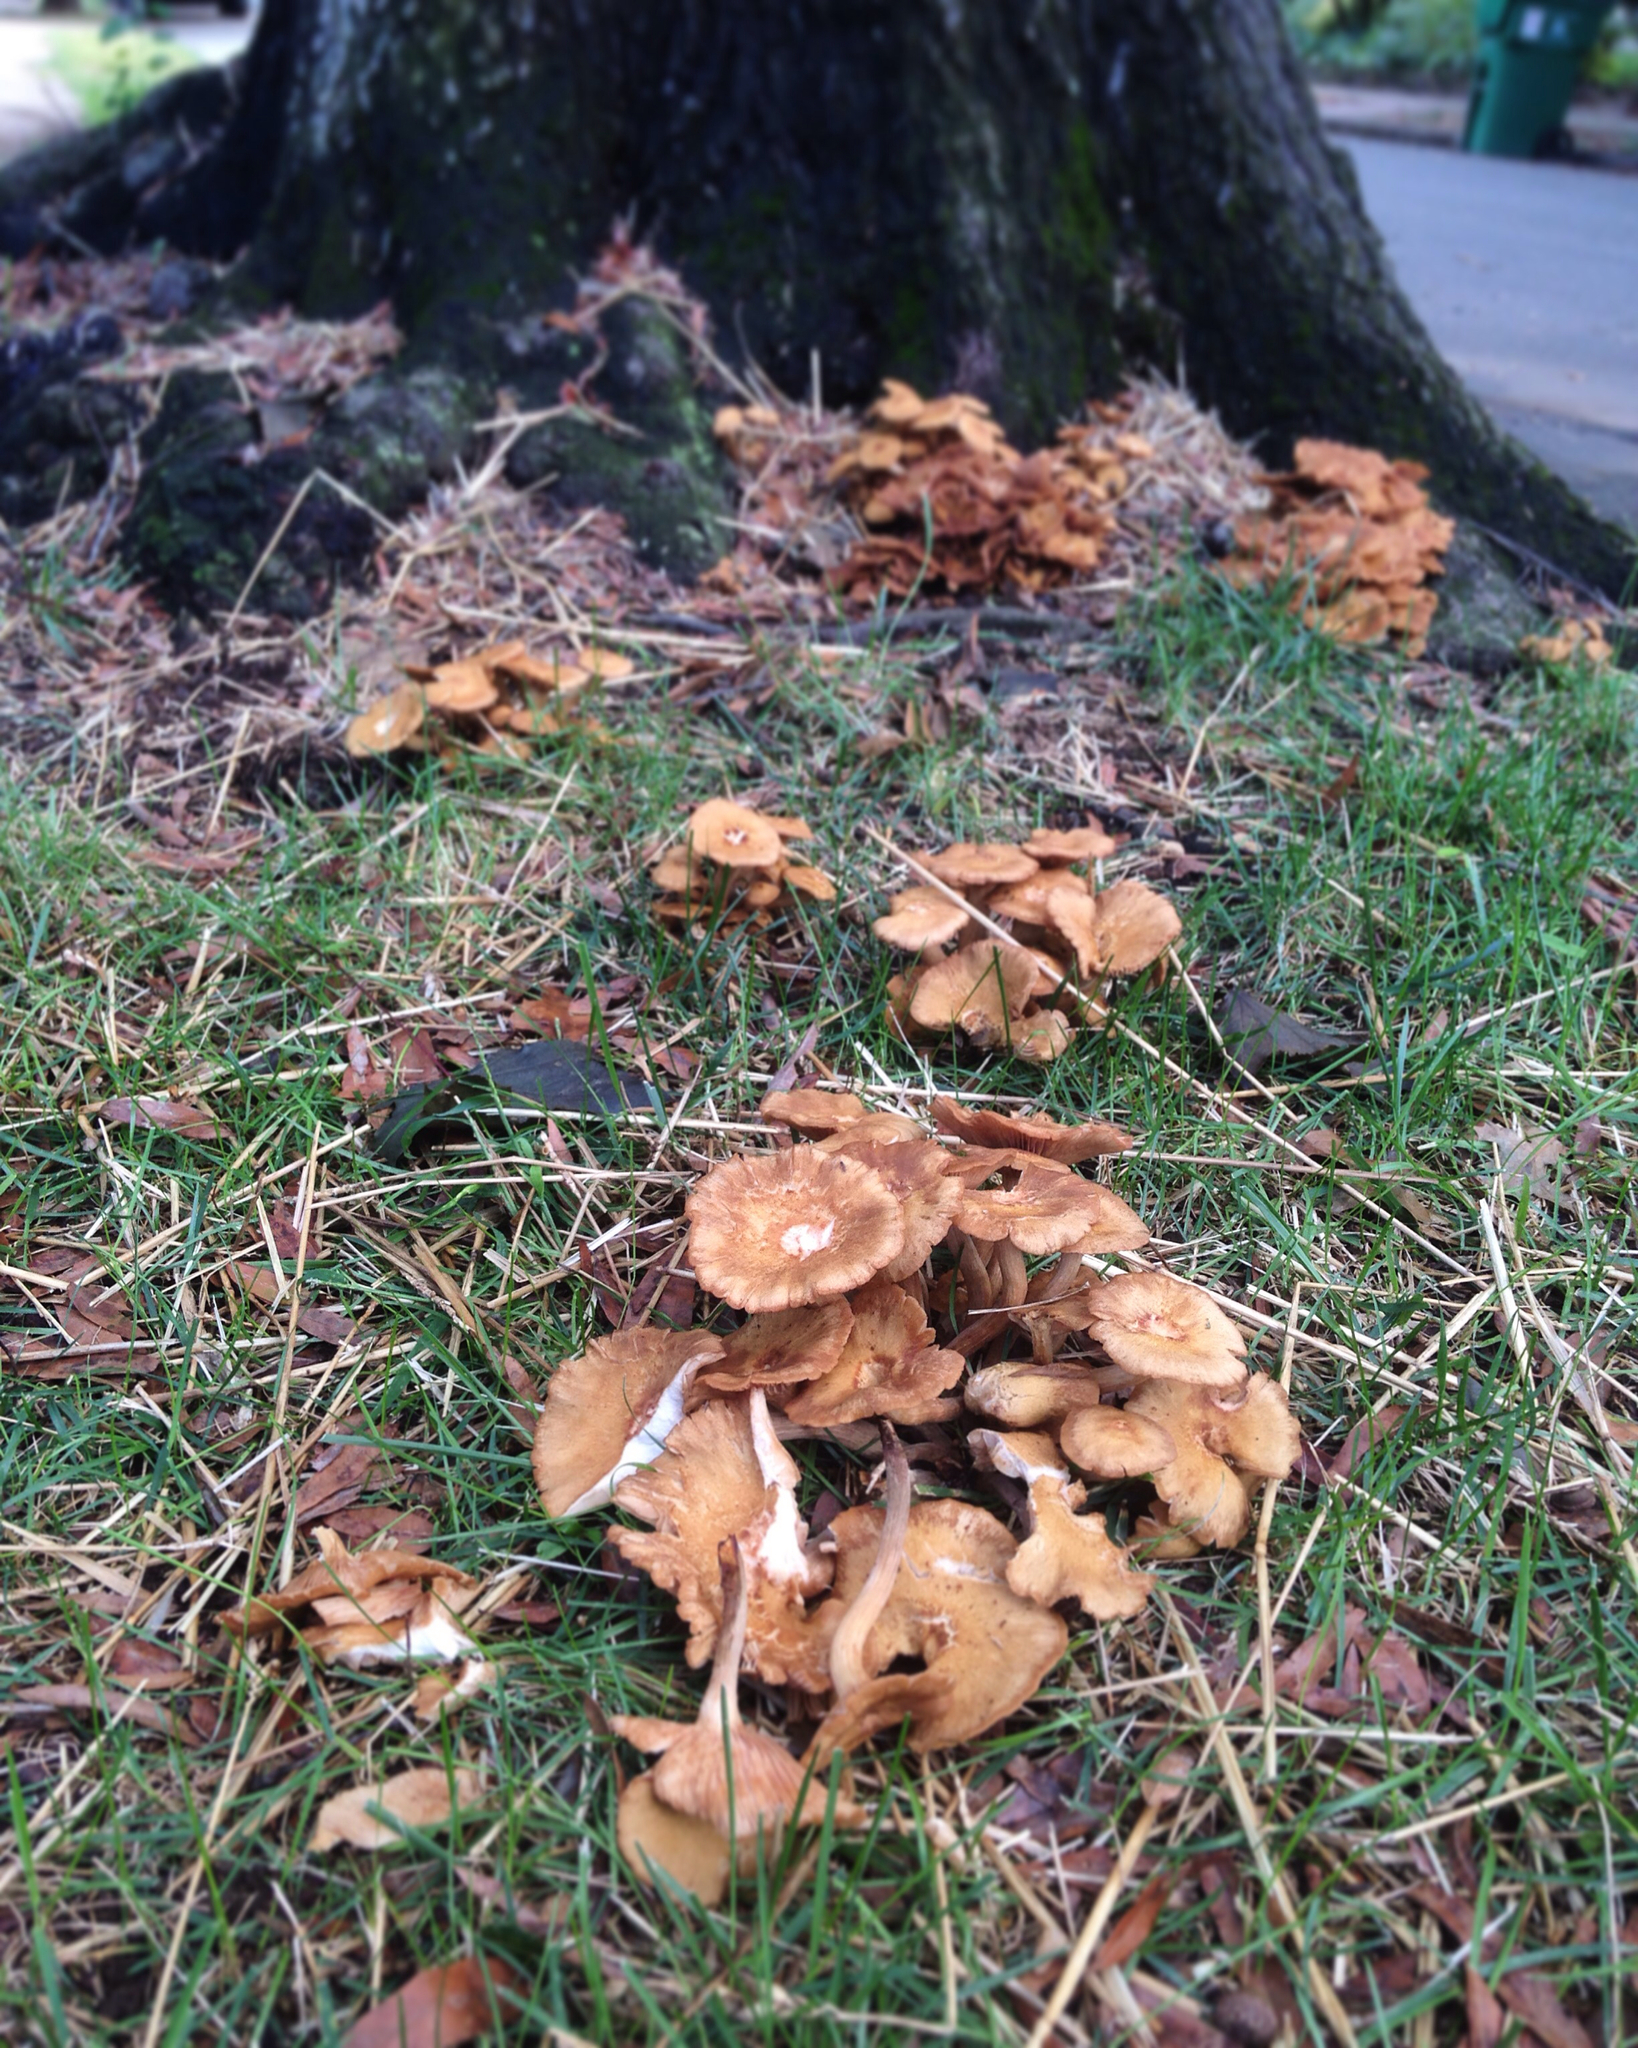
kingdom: Fungi
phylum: Basidiomycota
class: Agaricomycetes
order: Agaricales
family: Physalacriaceae
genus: Desarmillaria
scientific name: Desarmillaria caespitosa
